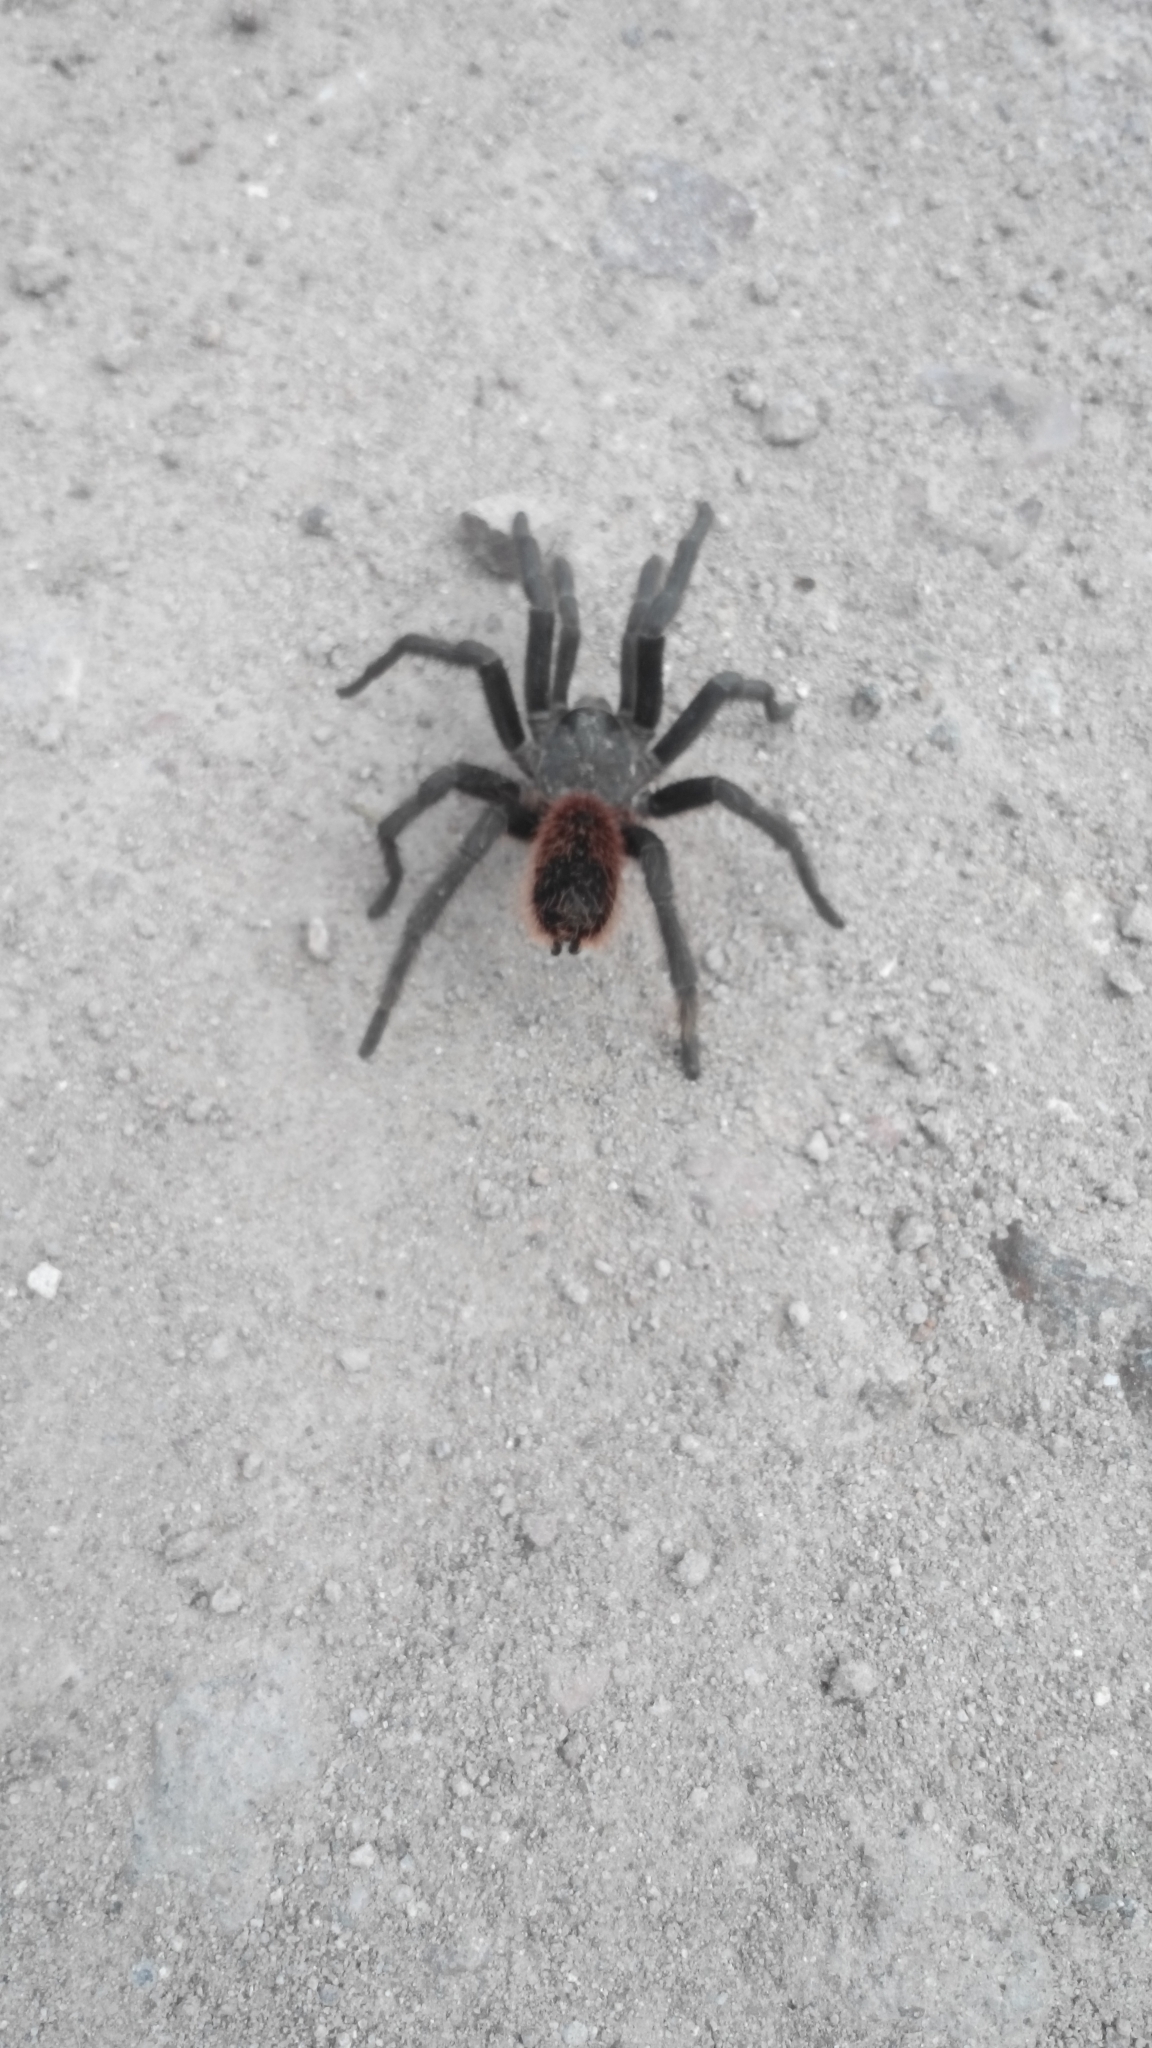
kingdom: Animalia
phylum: Arthropoda
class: Arachnida
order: Araneae
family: Theraphosidae
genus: Aphonopelma
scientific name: Aphonopelma caniceps
